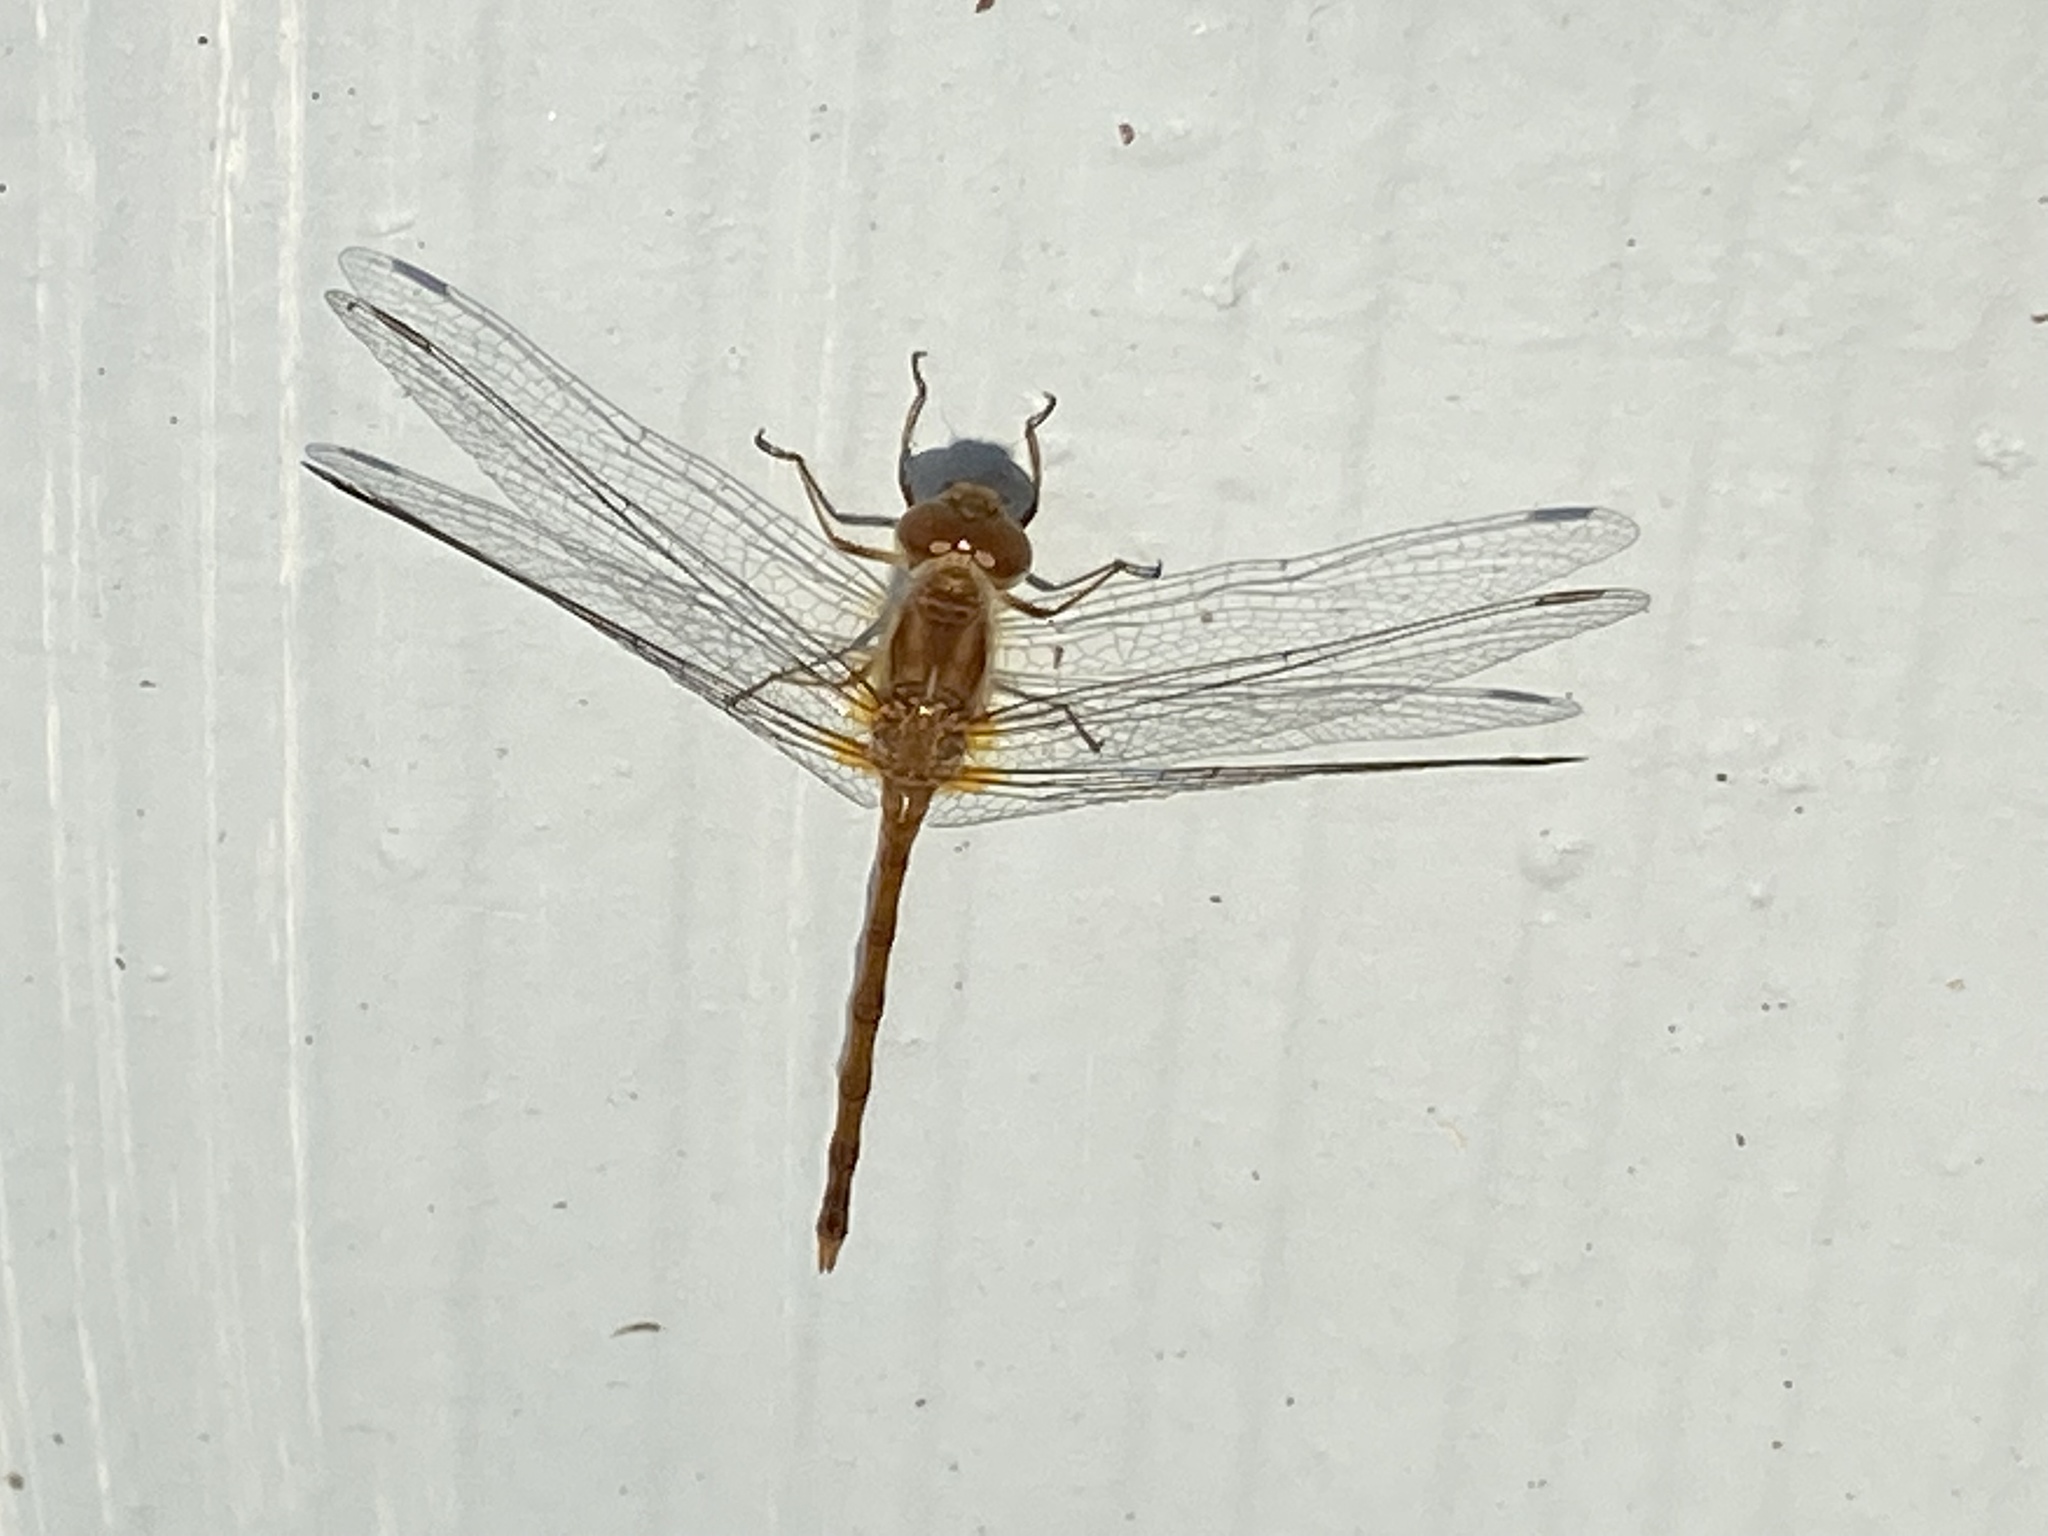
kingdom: Animalia
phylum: Arthropoda
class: Insecta
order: Odonata
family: Libellulidae
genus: Sympetrum
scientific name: Sympetrum vicinum
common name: Autumn meadowhawk
